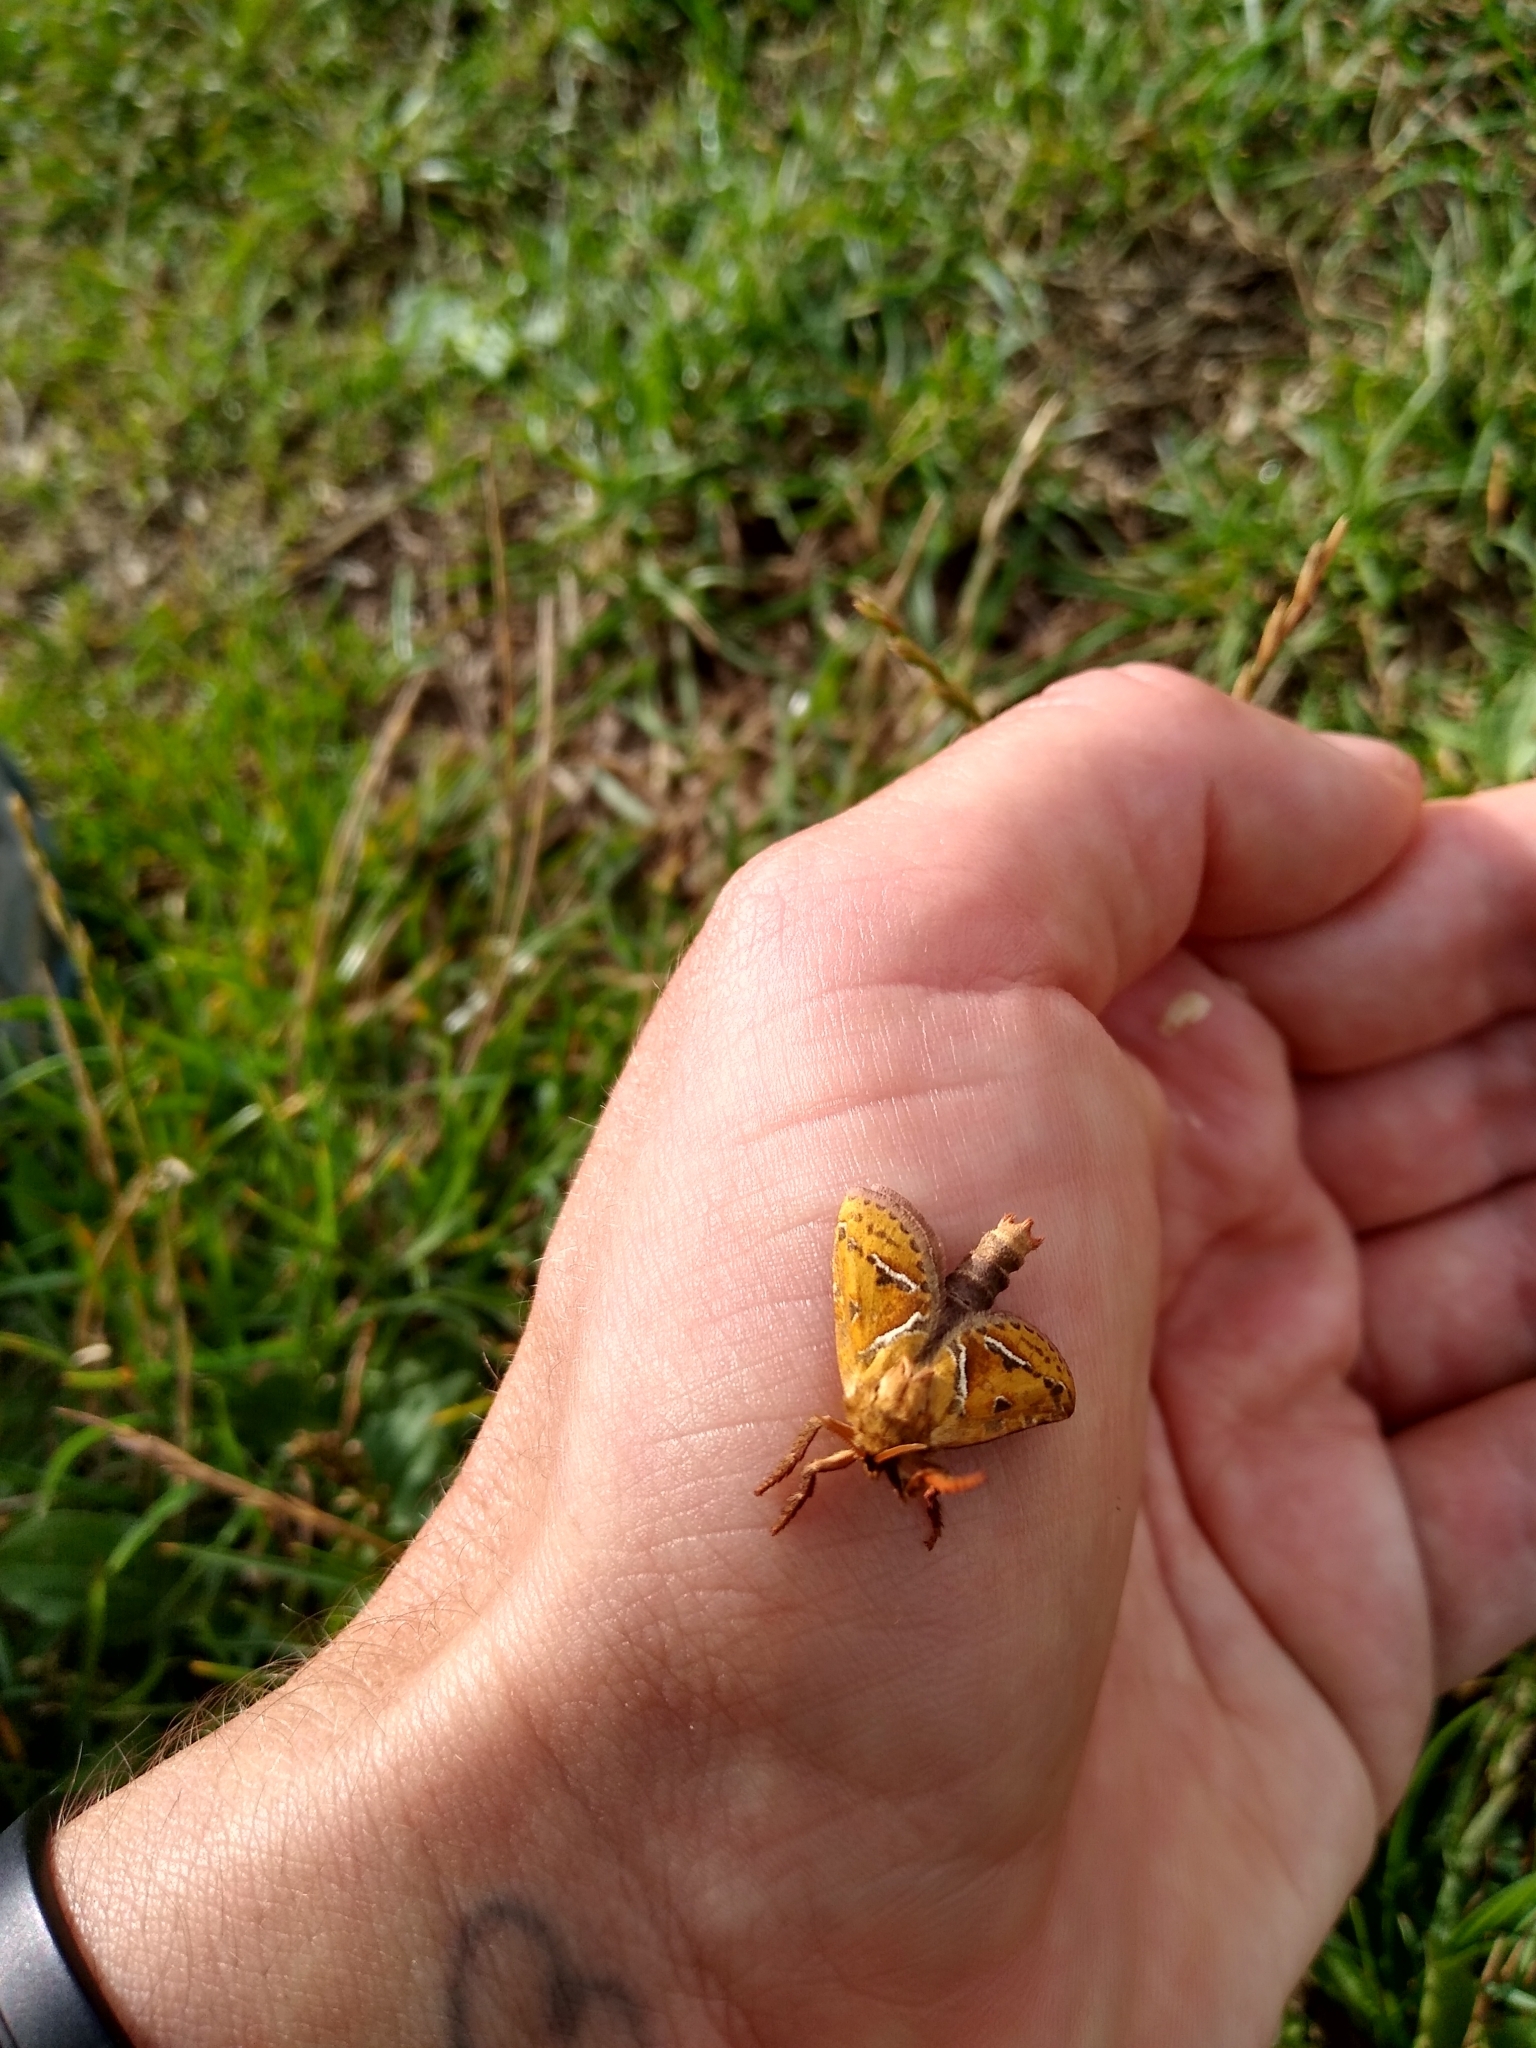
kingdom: Animalia
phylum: Arthropoda
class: Insecta
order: Lepidoptera
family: Hepialidae
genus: Triodia
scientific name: Triodia sylvina
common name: Orange swift
